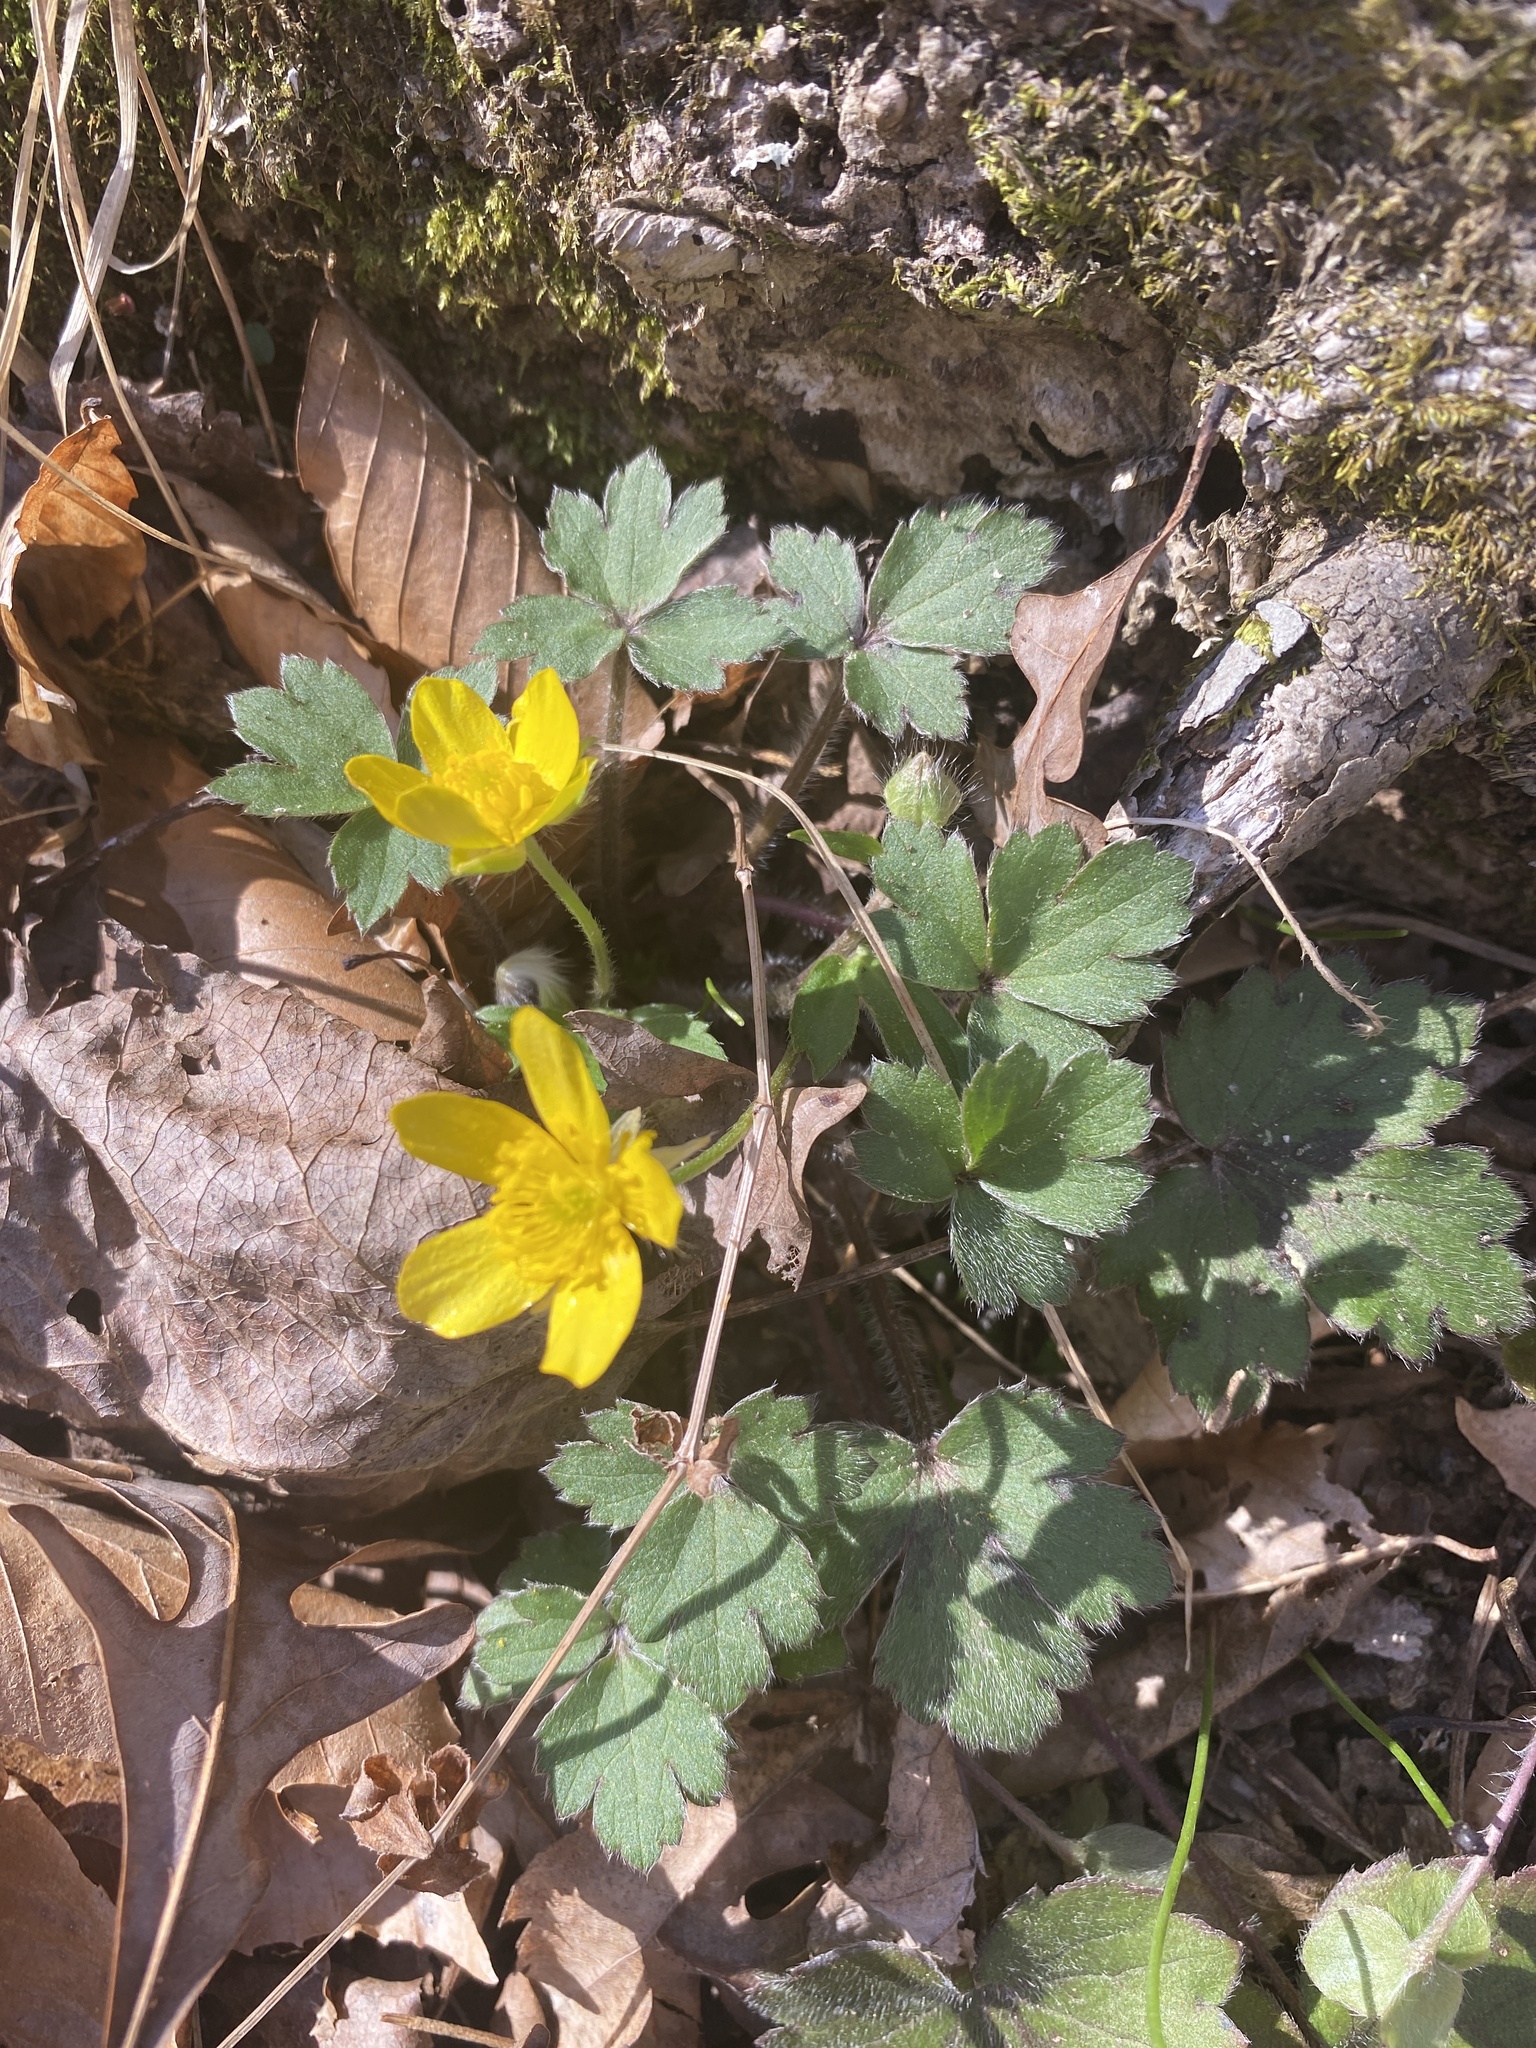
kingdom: Plantae
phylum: Tracheophyta
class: Magnoliopsida
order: Ranunculales
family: Ranunculaceae
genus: Ranunculus
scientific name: Ranunculus hispidus
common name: Bristly buttercup
